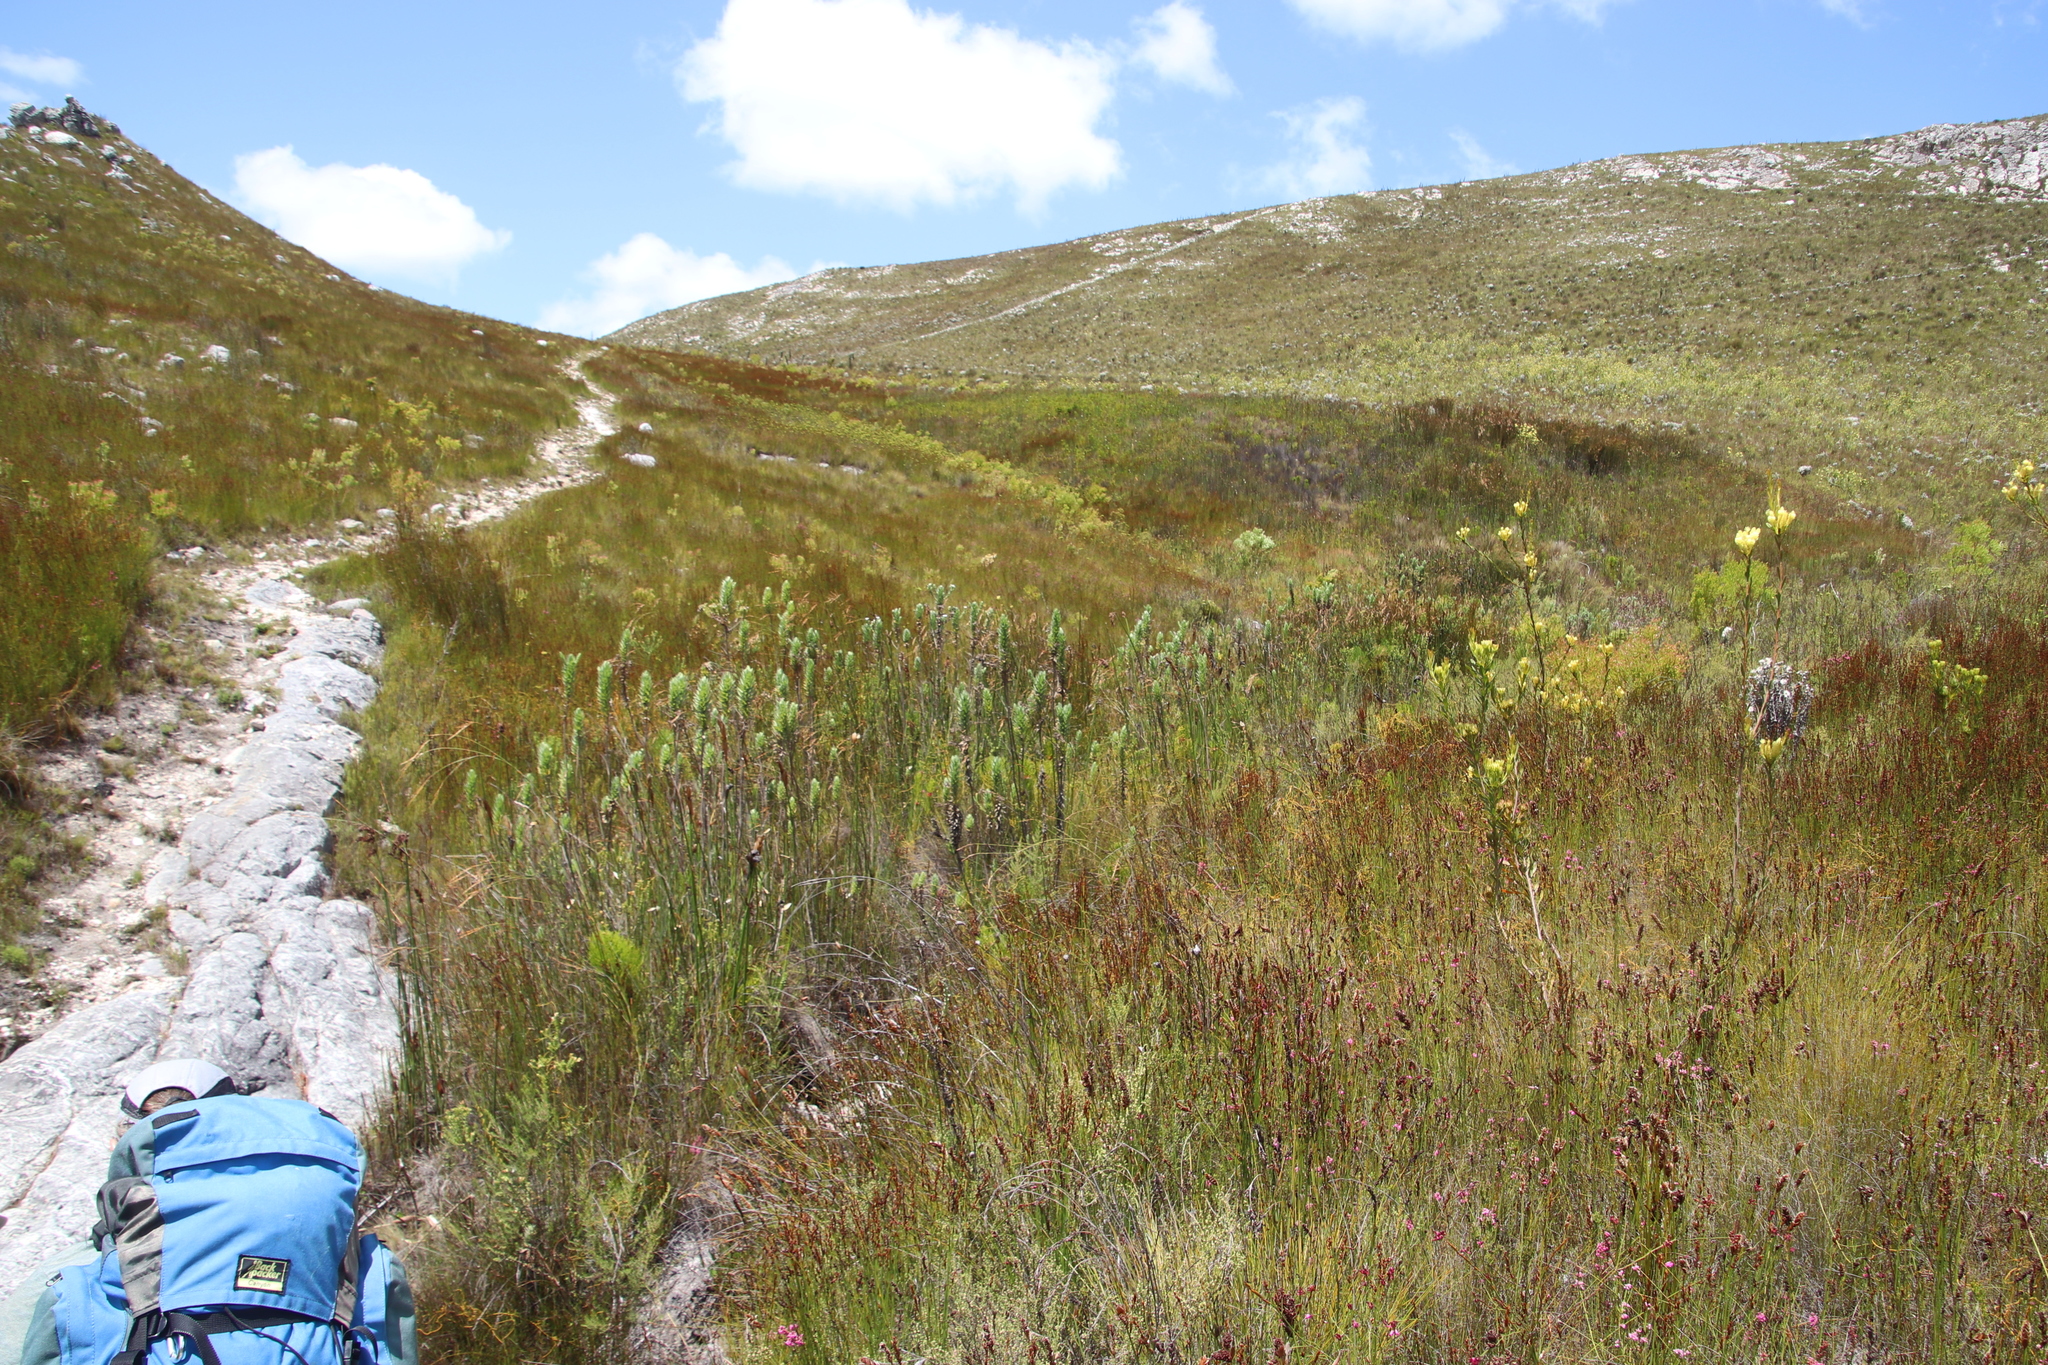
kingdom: Plantae
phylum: Tracheophyta
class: Magnoliopsida
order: Asterales
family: Asteraceae
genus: Osmitopsis
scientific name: Osmitopsis asteriscoides
